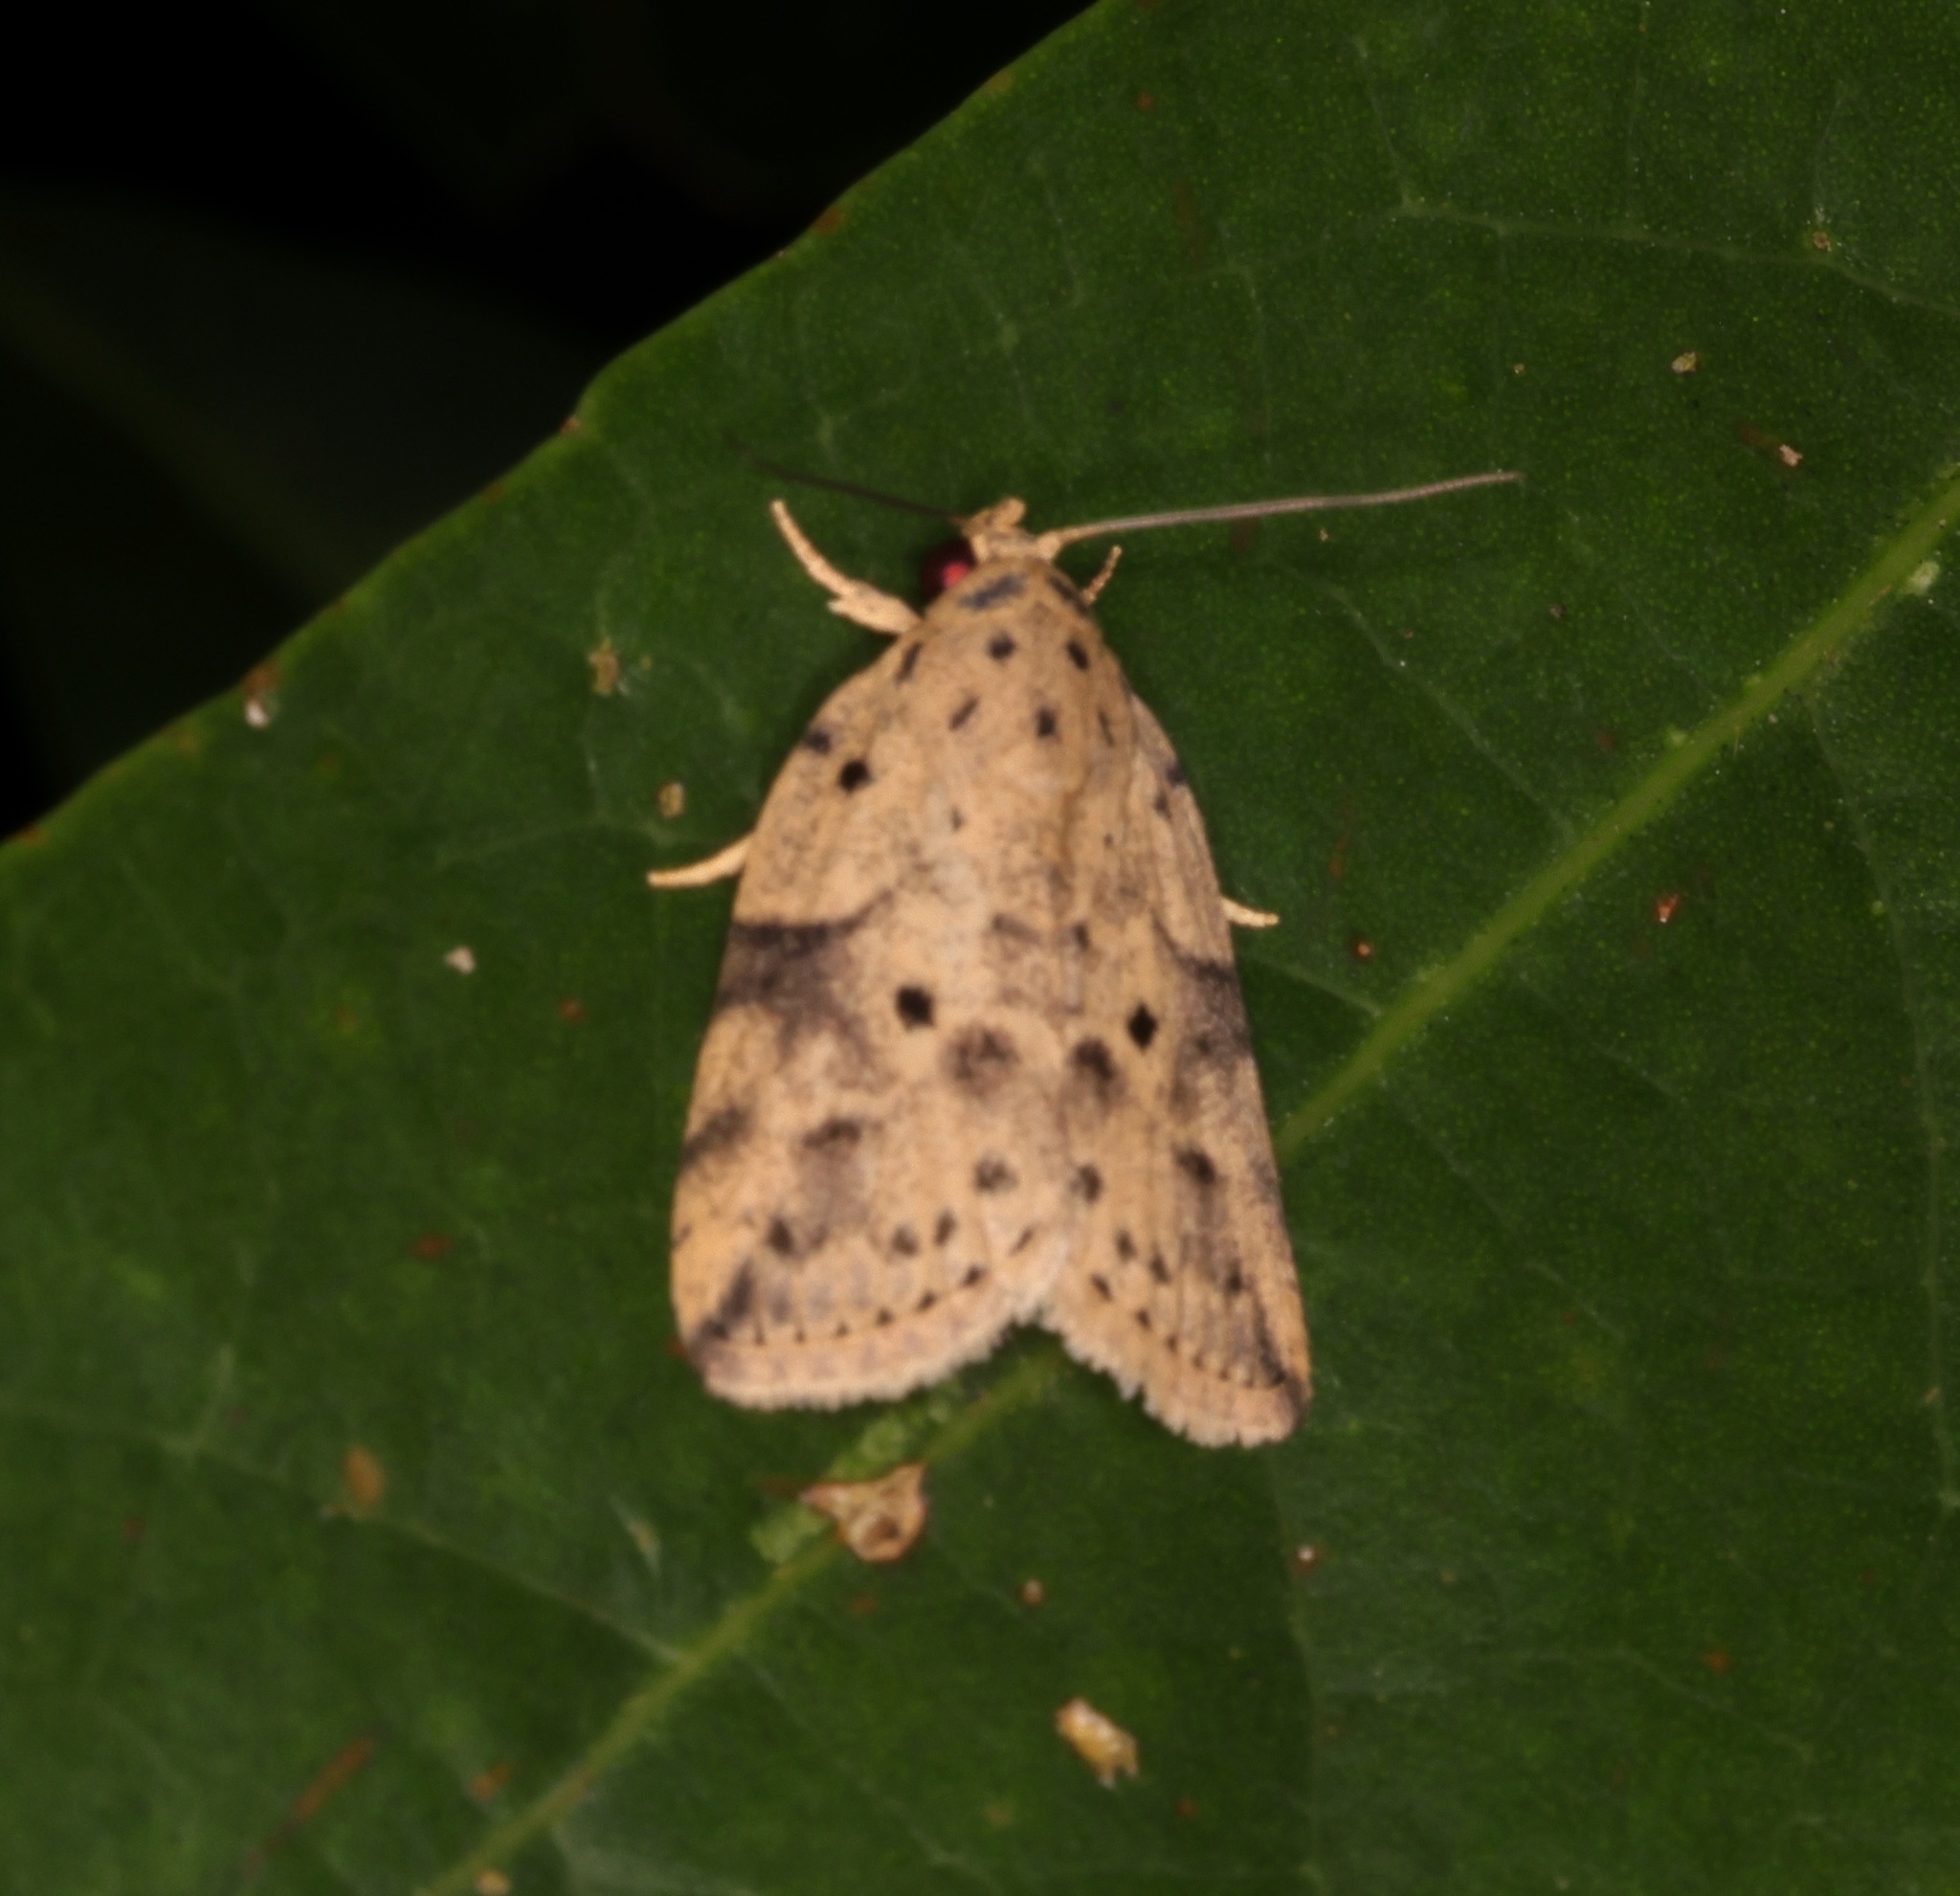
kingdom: Animalia
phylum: Arthropoda
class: Insecta
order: Lepidoptera
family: Nolidae
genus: Giaura
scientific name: Giaura multipunctata
